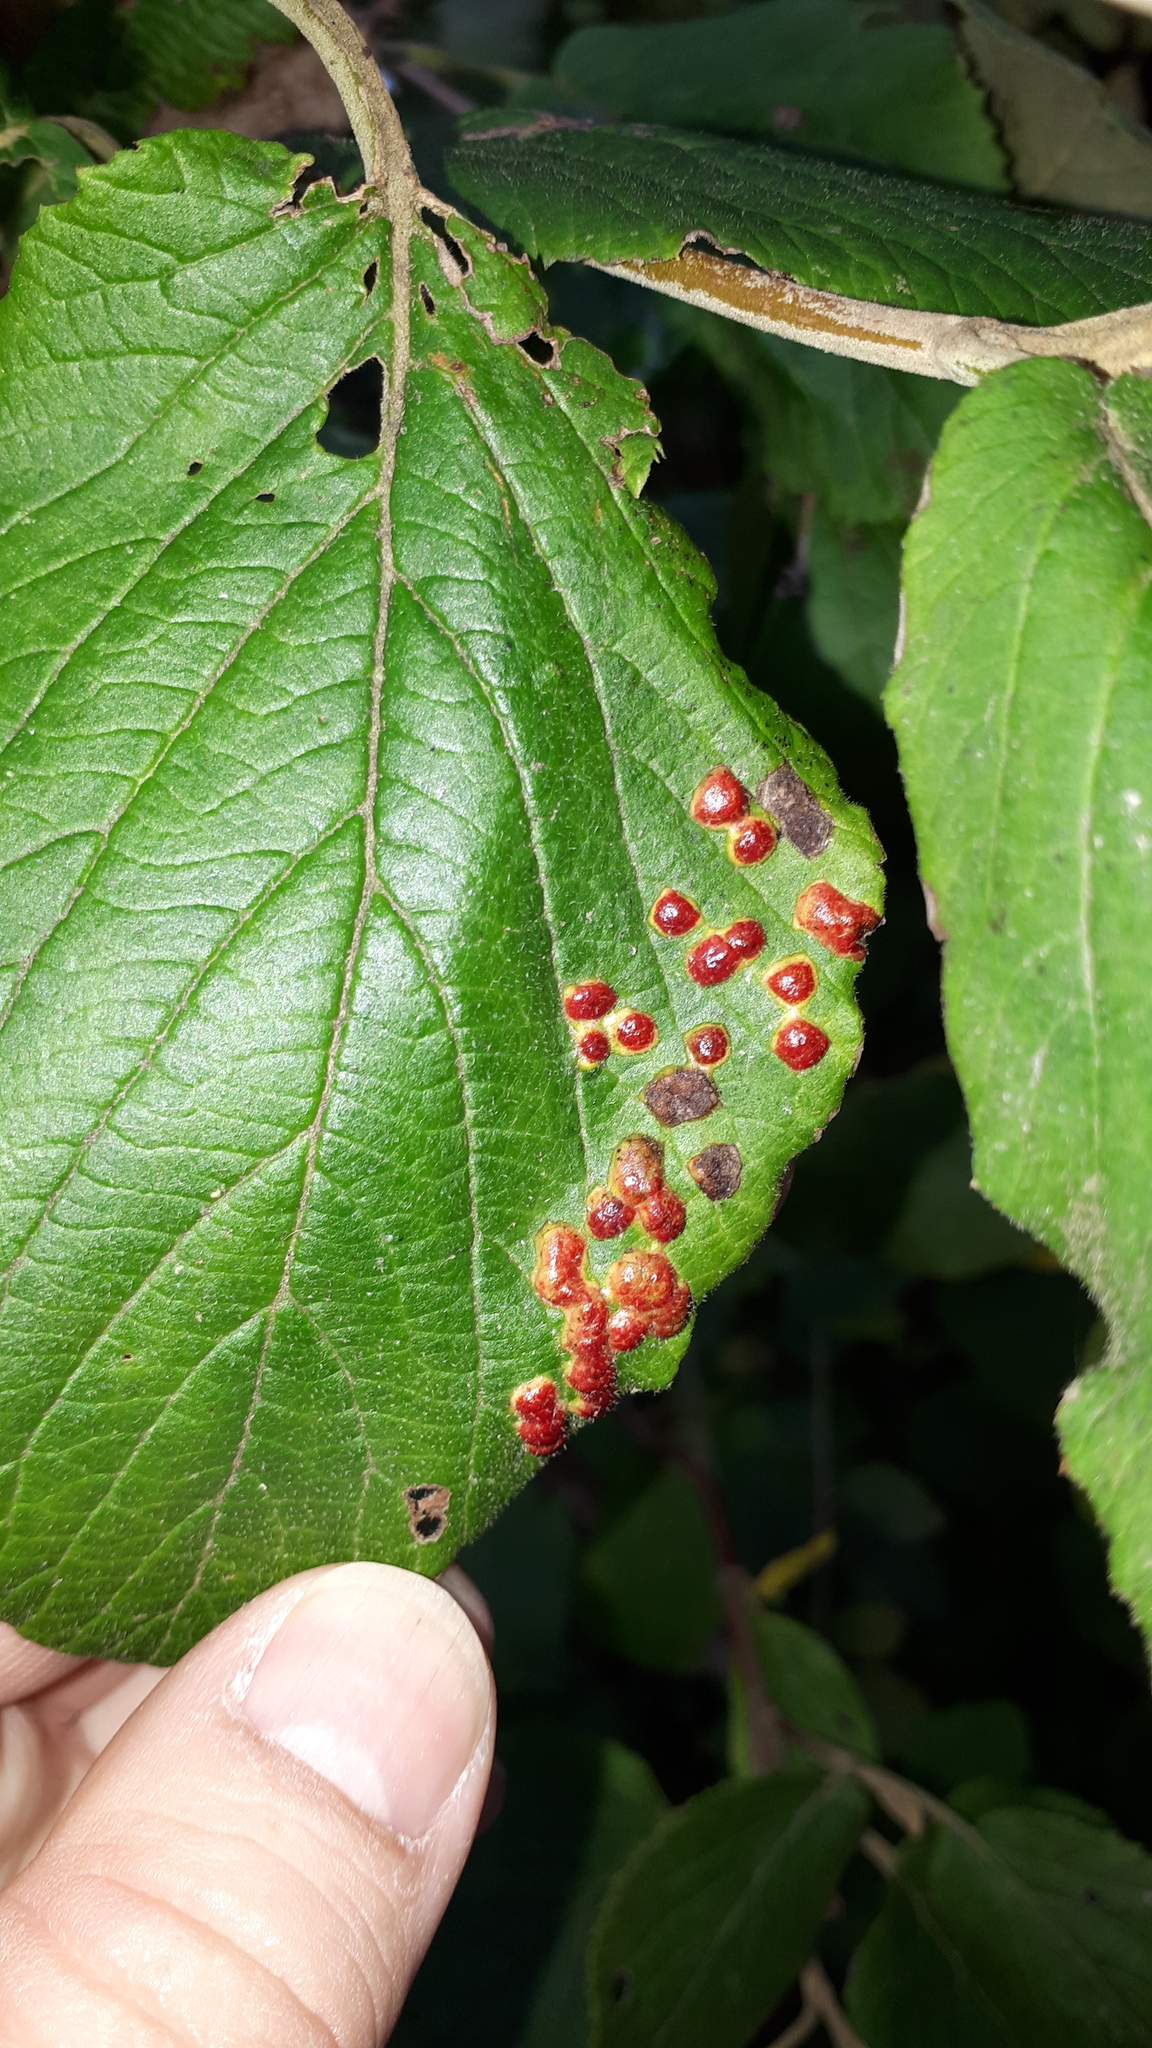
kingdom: Animalia
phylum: Arthropoda
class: Insecta
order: Diptera
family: Cecidomyiidae
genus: Sackenomyia
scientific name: Sackenomyia reaumurii
